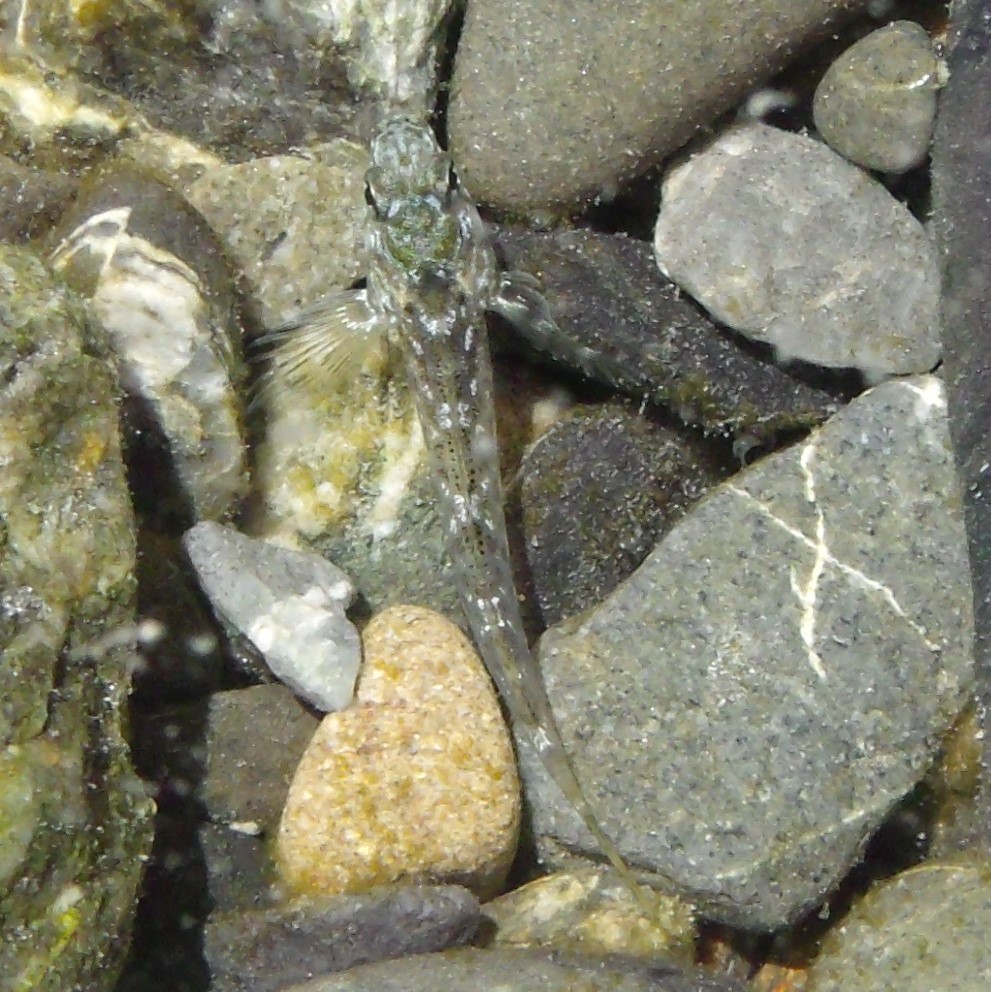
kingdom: Animalia
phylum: Chordata
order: Perciformes
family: Tripterygiidae
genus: Bellapiscis
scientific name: Bellapiscis medius
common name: Twister
